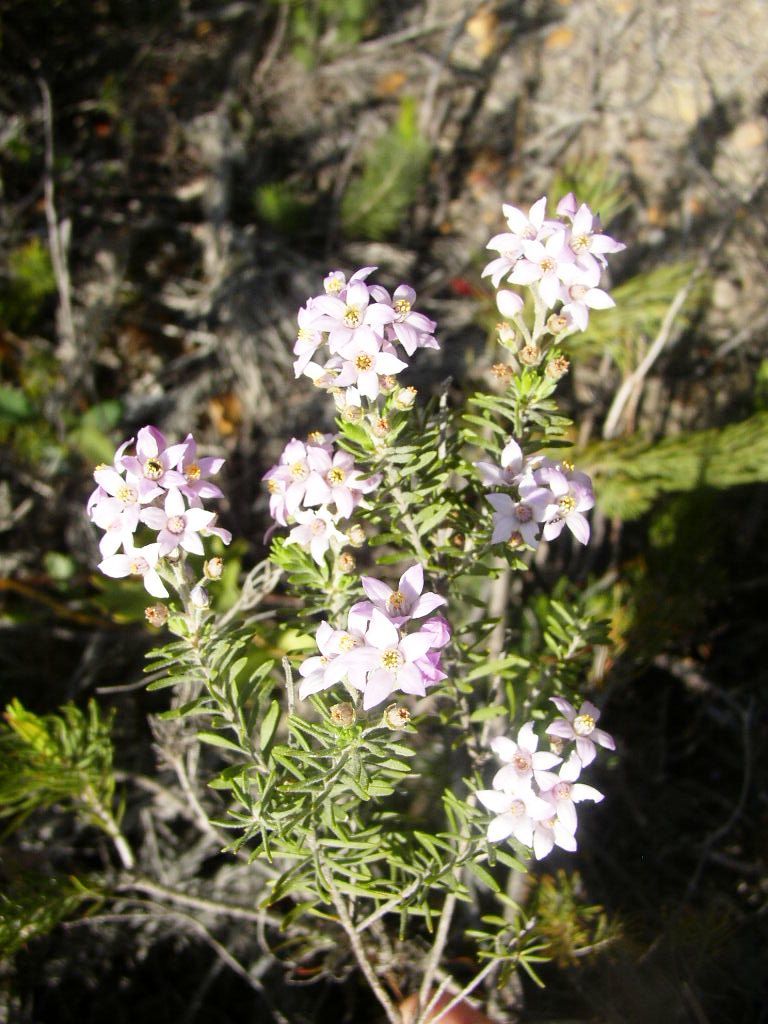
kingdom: Plantae
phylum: Tracheophyta
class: Magnoliopsida
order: Sapindales
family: Rutaceae
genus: Philotheca
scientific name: Philotheca spicata
